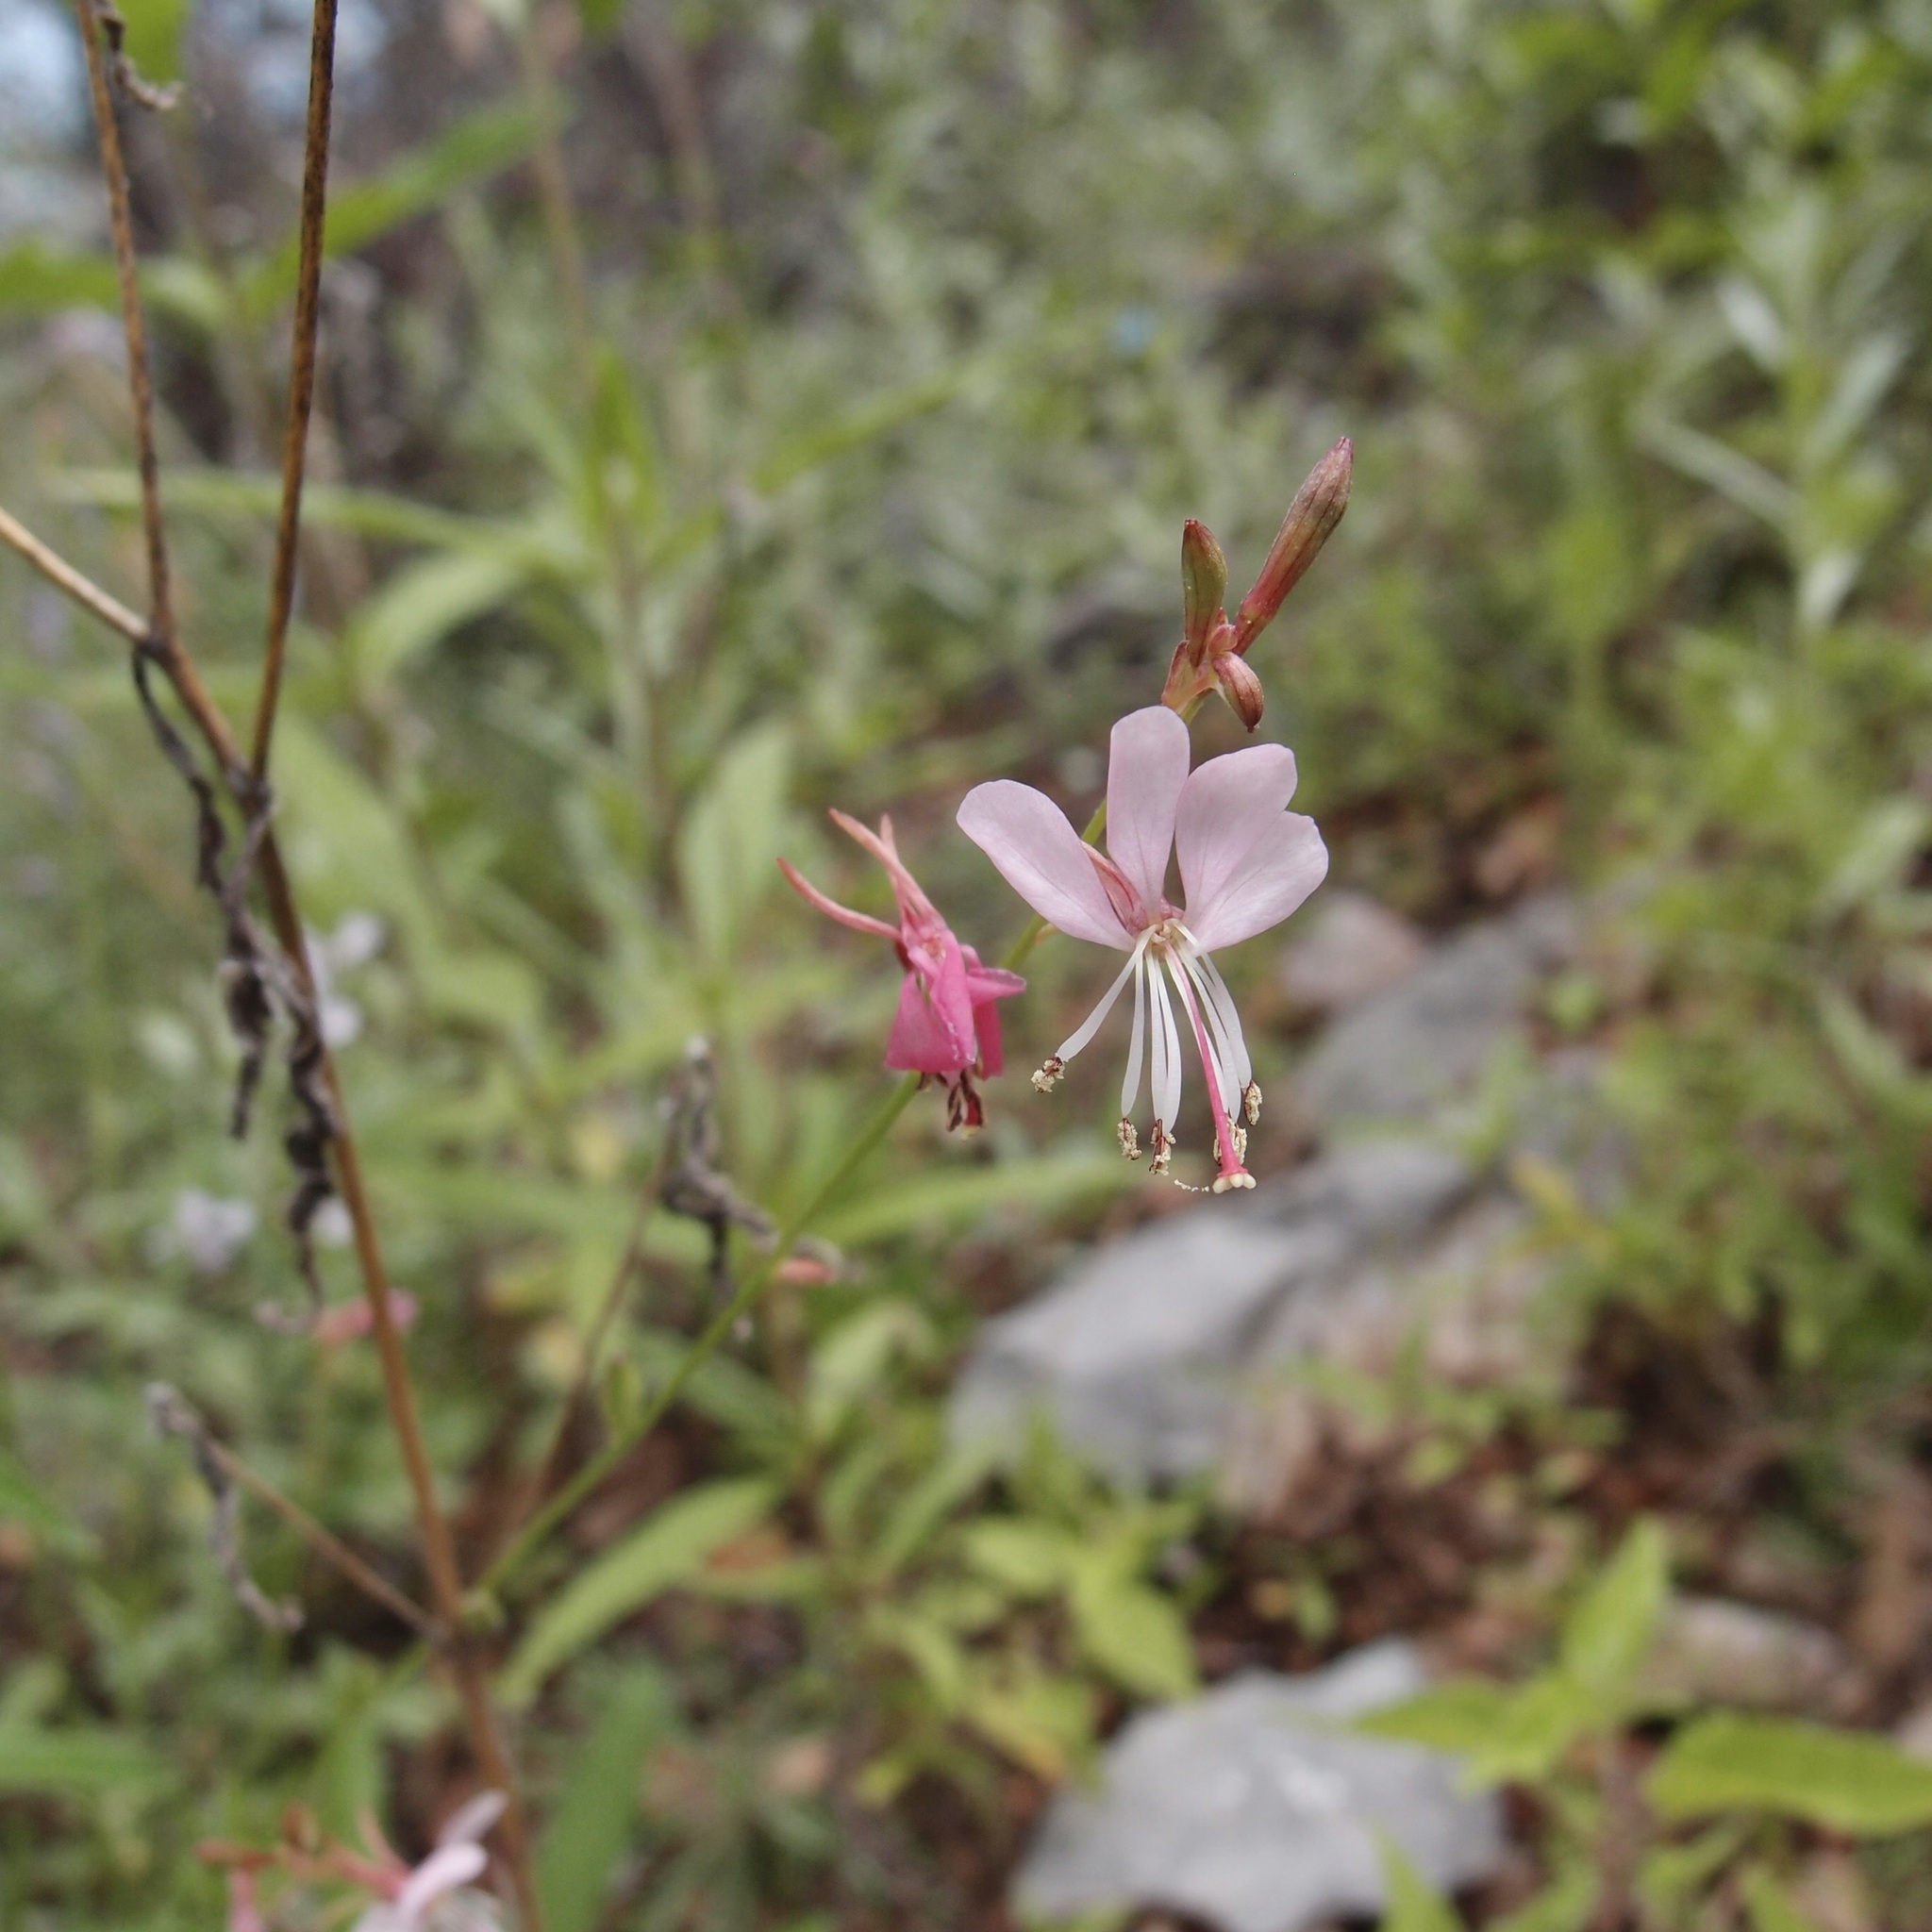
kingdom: Plantae
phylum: Tracheophyta
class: Magnoliopsida
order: Myrtales
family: Onagraceae
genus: Oenothera
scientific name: Oenothera podocarpa
